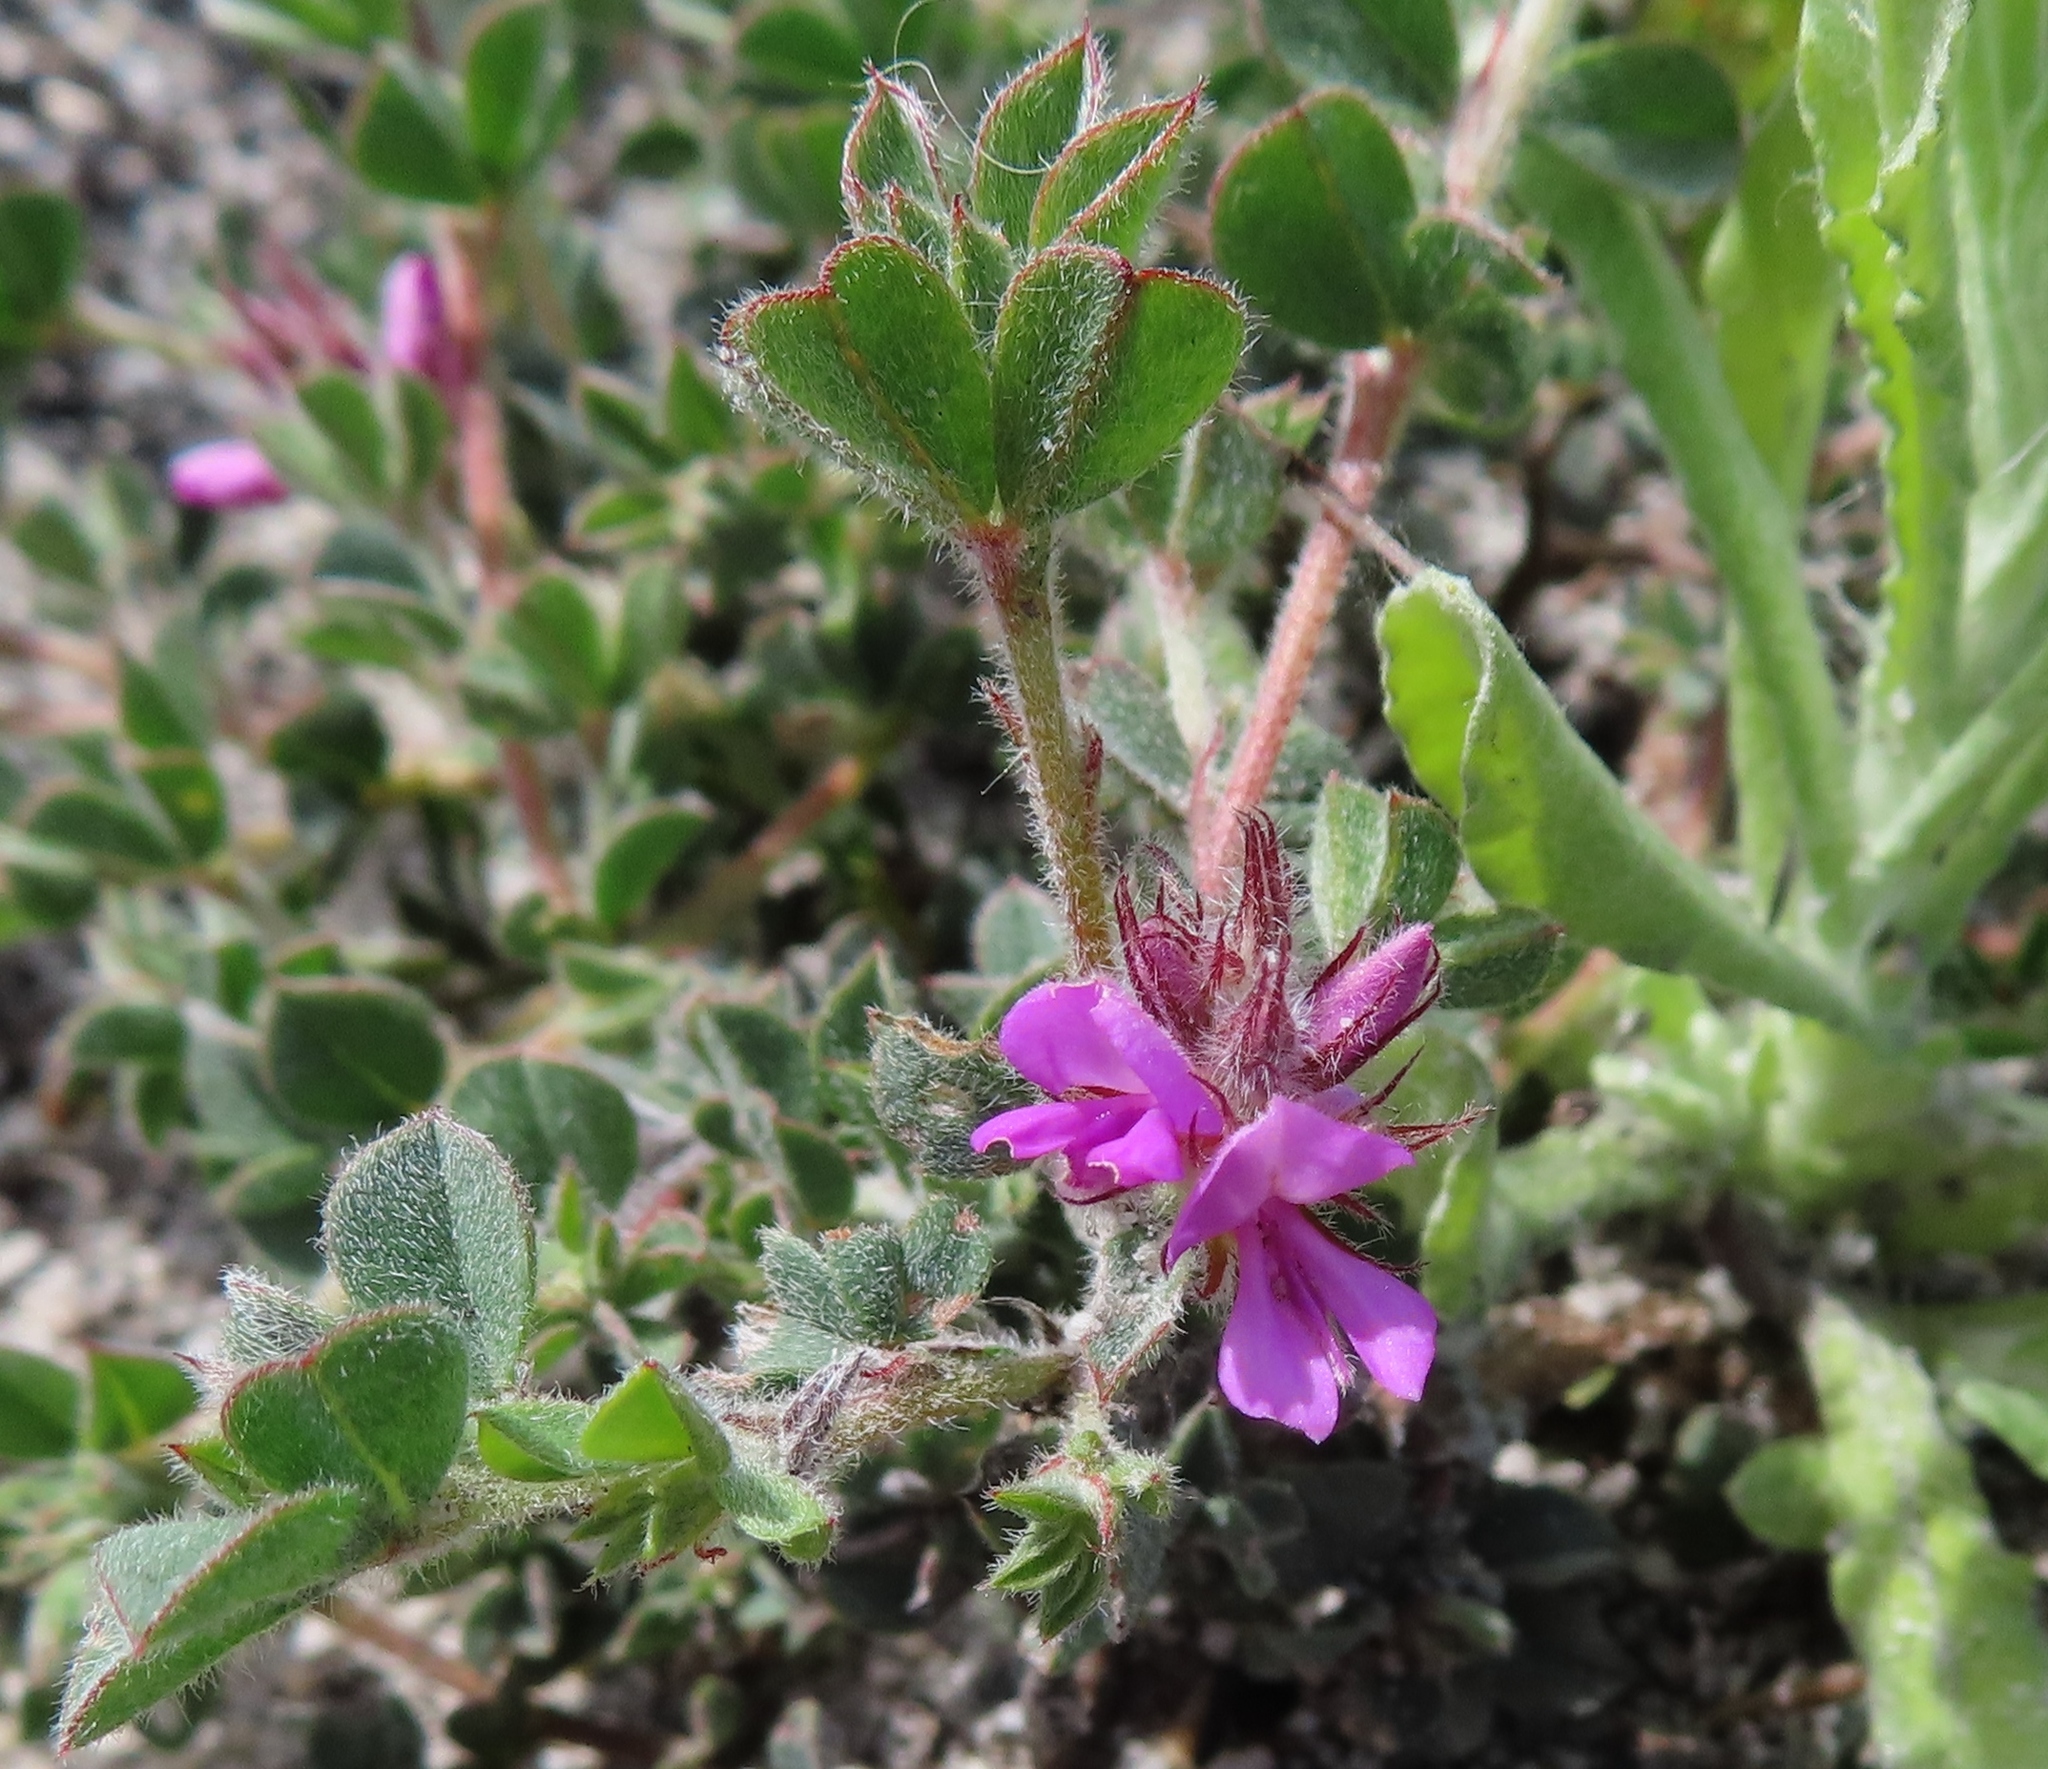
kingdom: Plantae
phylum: Tracheophyta
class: Magnoliopsida
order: Fabales
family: Fabaceae
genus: Indigofera
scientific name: Indigofera glomerata
